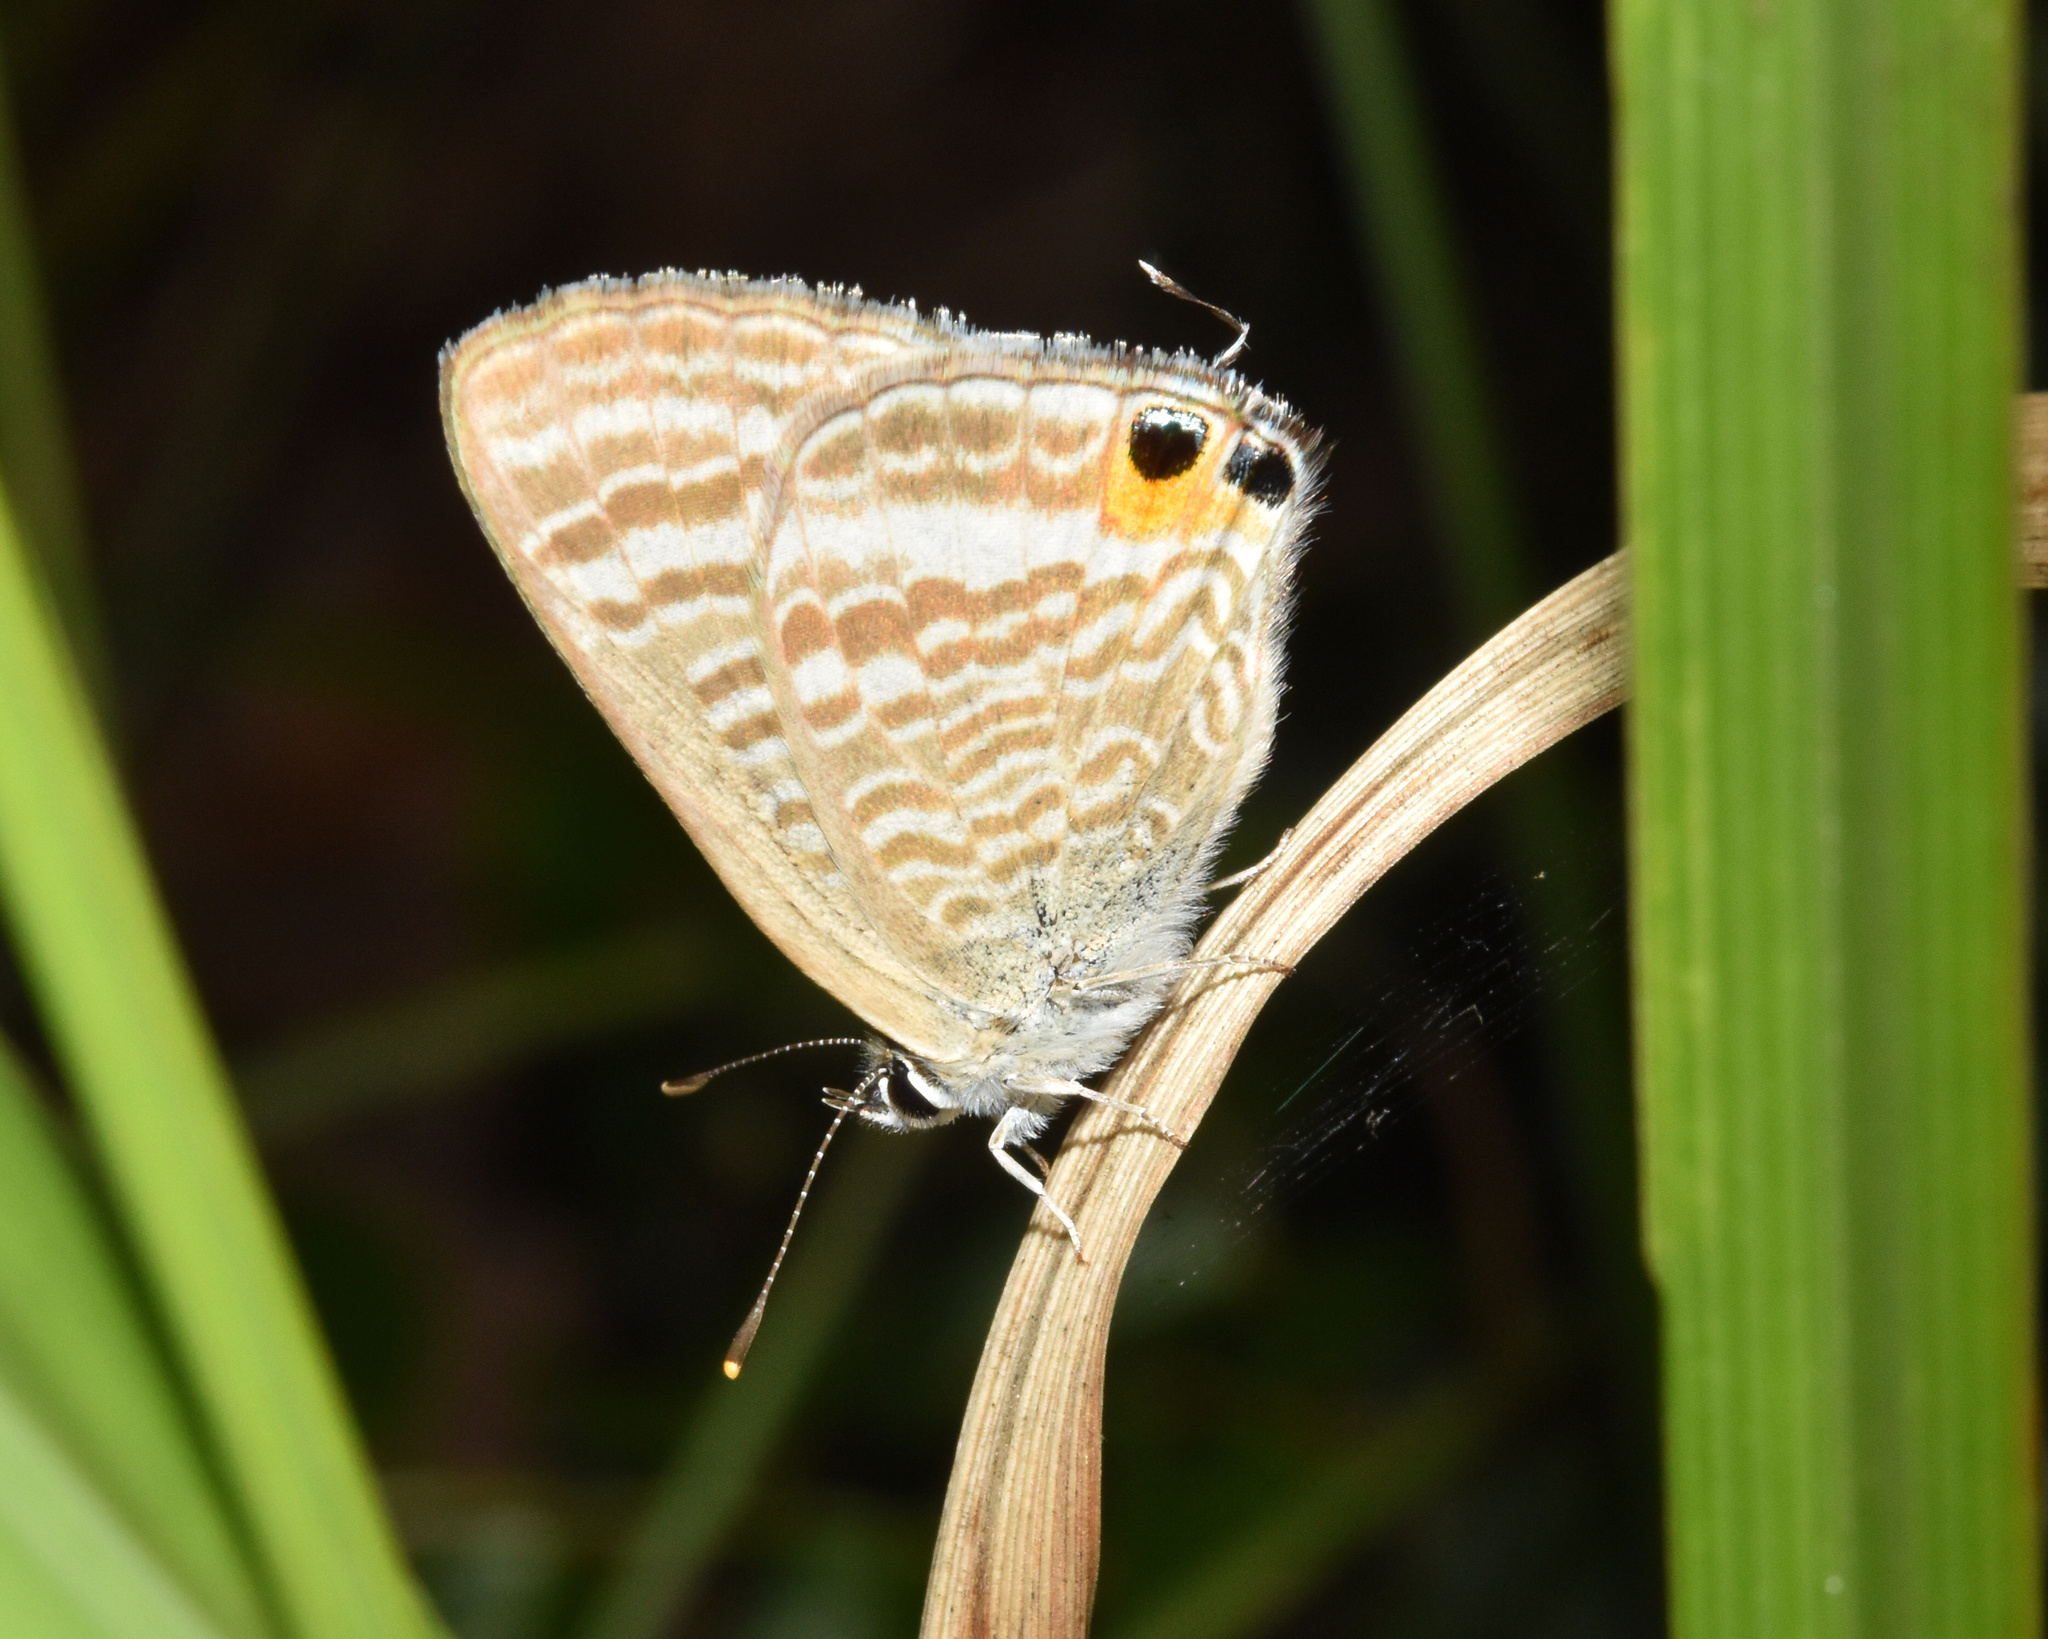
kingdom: Animalia
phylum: Arthropoda
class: Insecta
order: Lepidoptera
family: Lycaenidae
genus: Lampides
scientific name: Lampides boeticus
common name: Long-tailed blue
